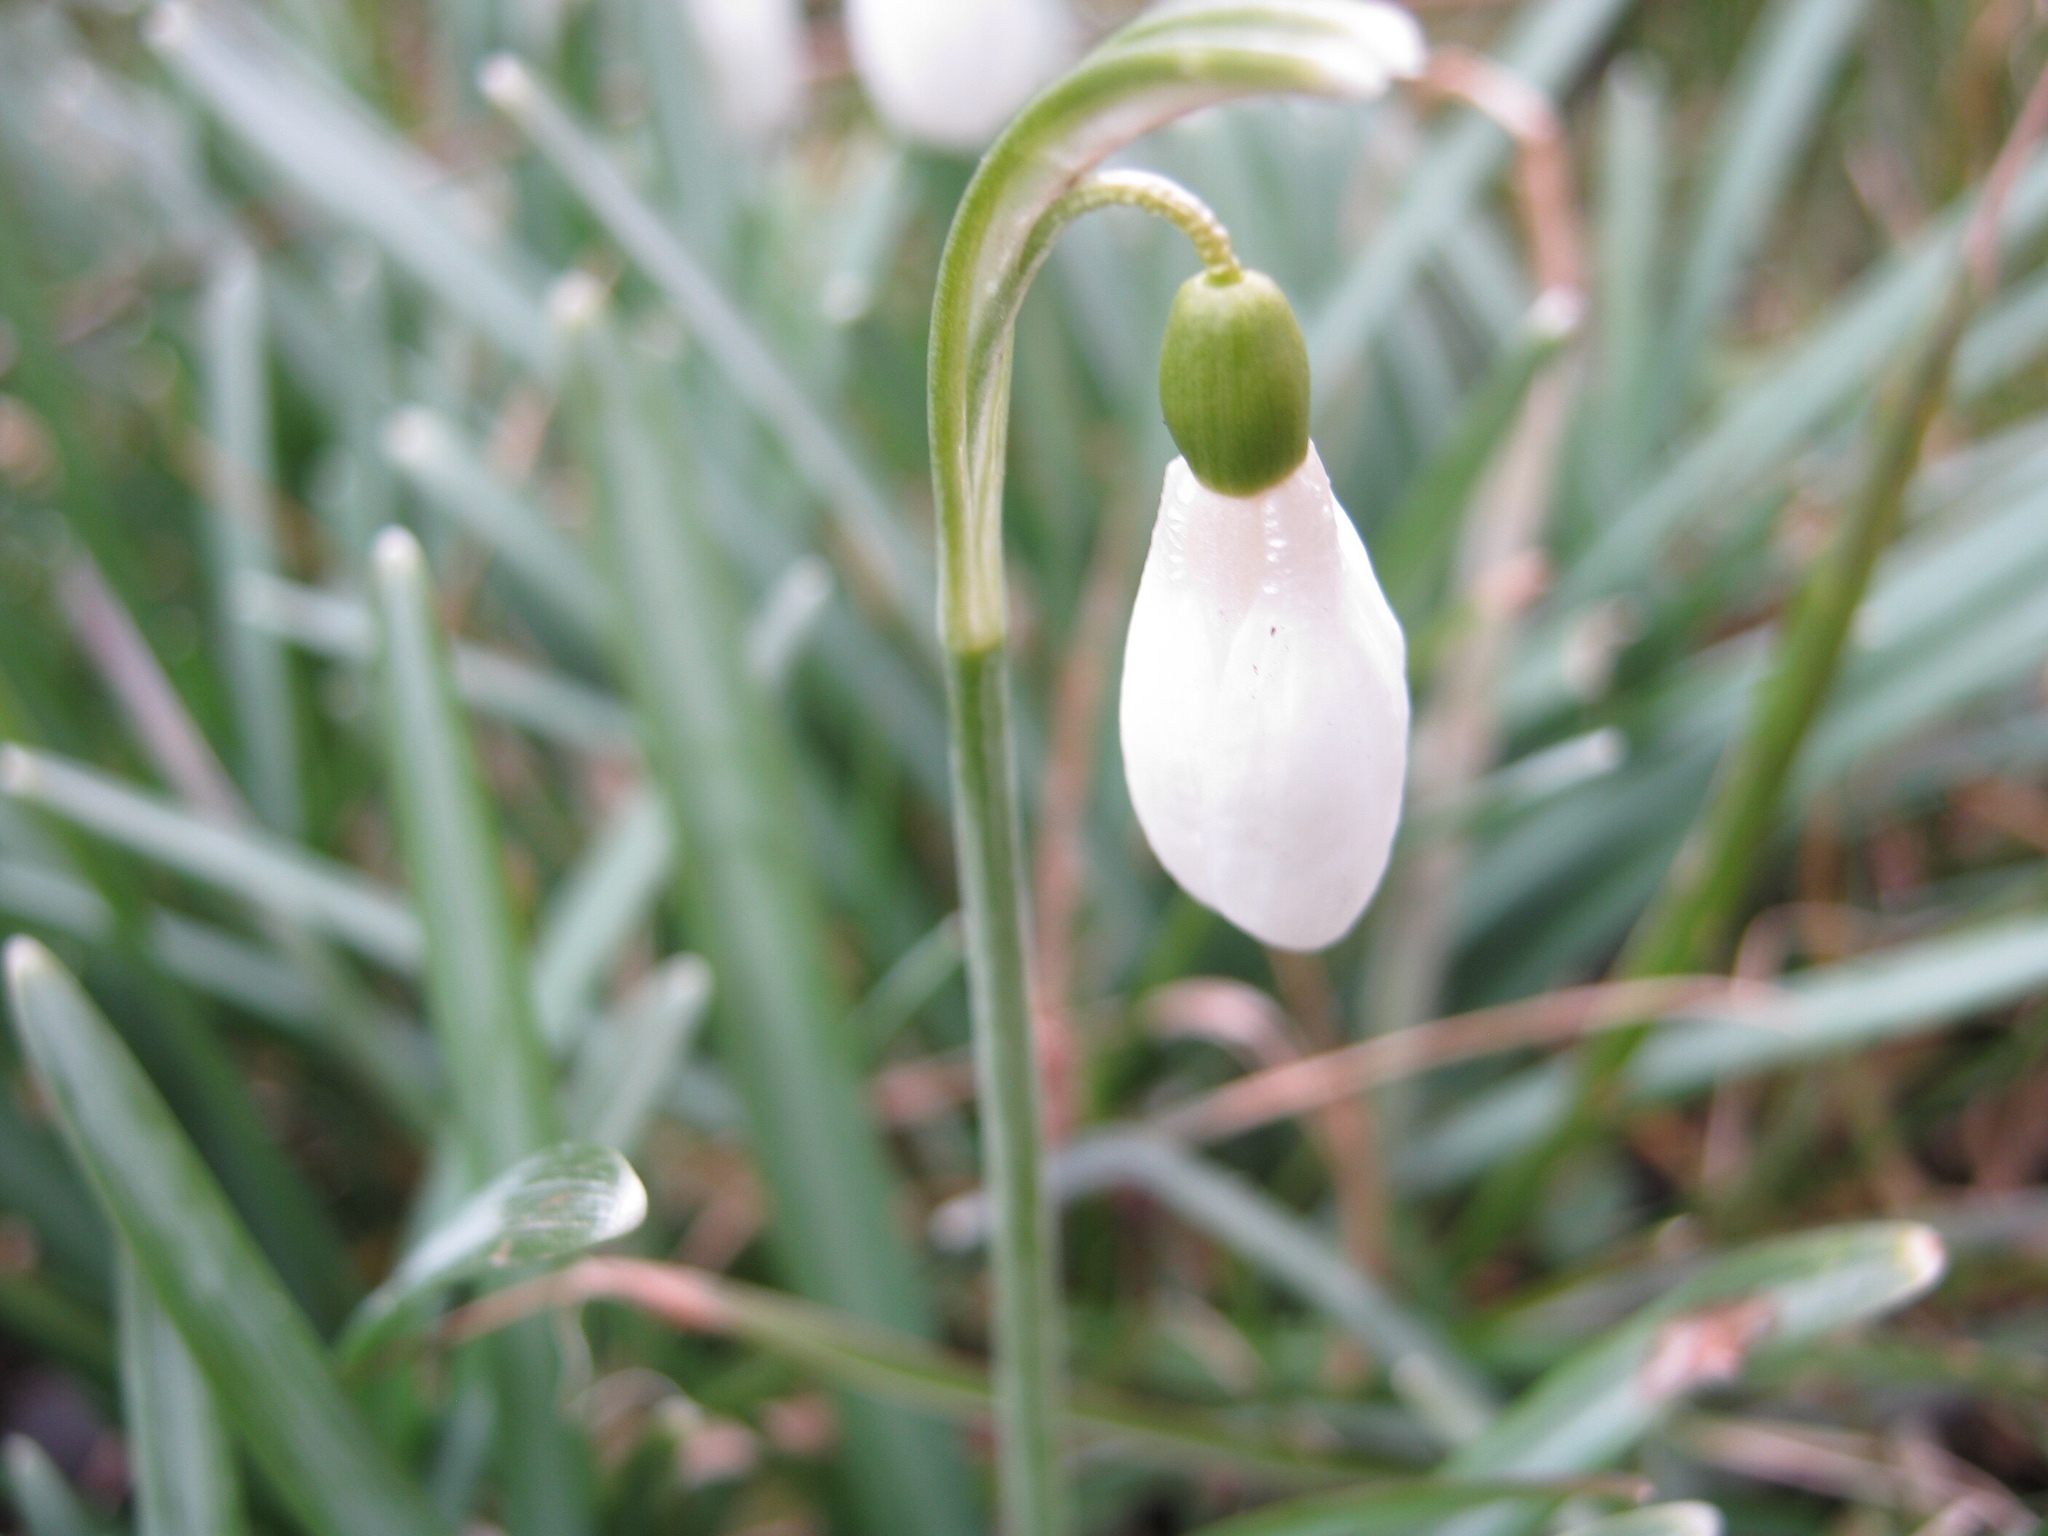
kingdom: Plantae
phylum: Tracheophyta
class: Liliopsida
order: Asparagales
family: Amaryllidaceae
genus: Galanthus
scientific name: Galanthus nivalis
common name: Snowdrop
